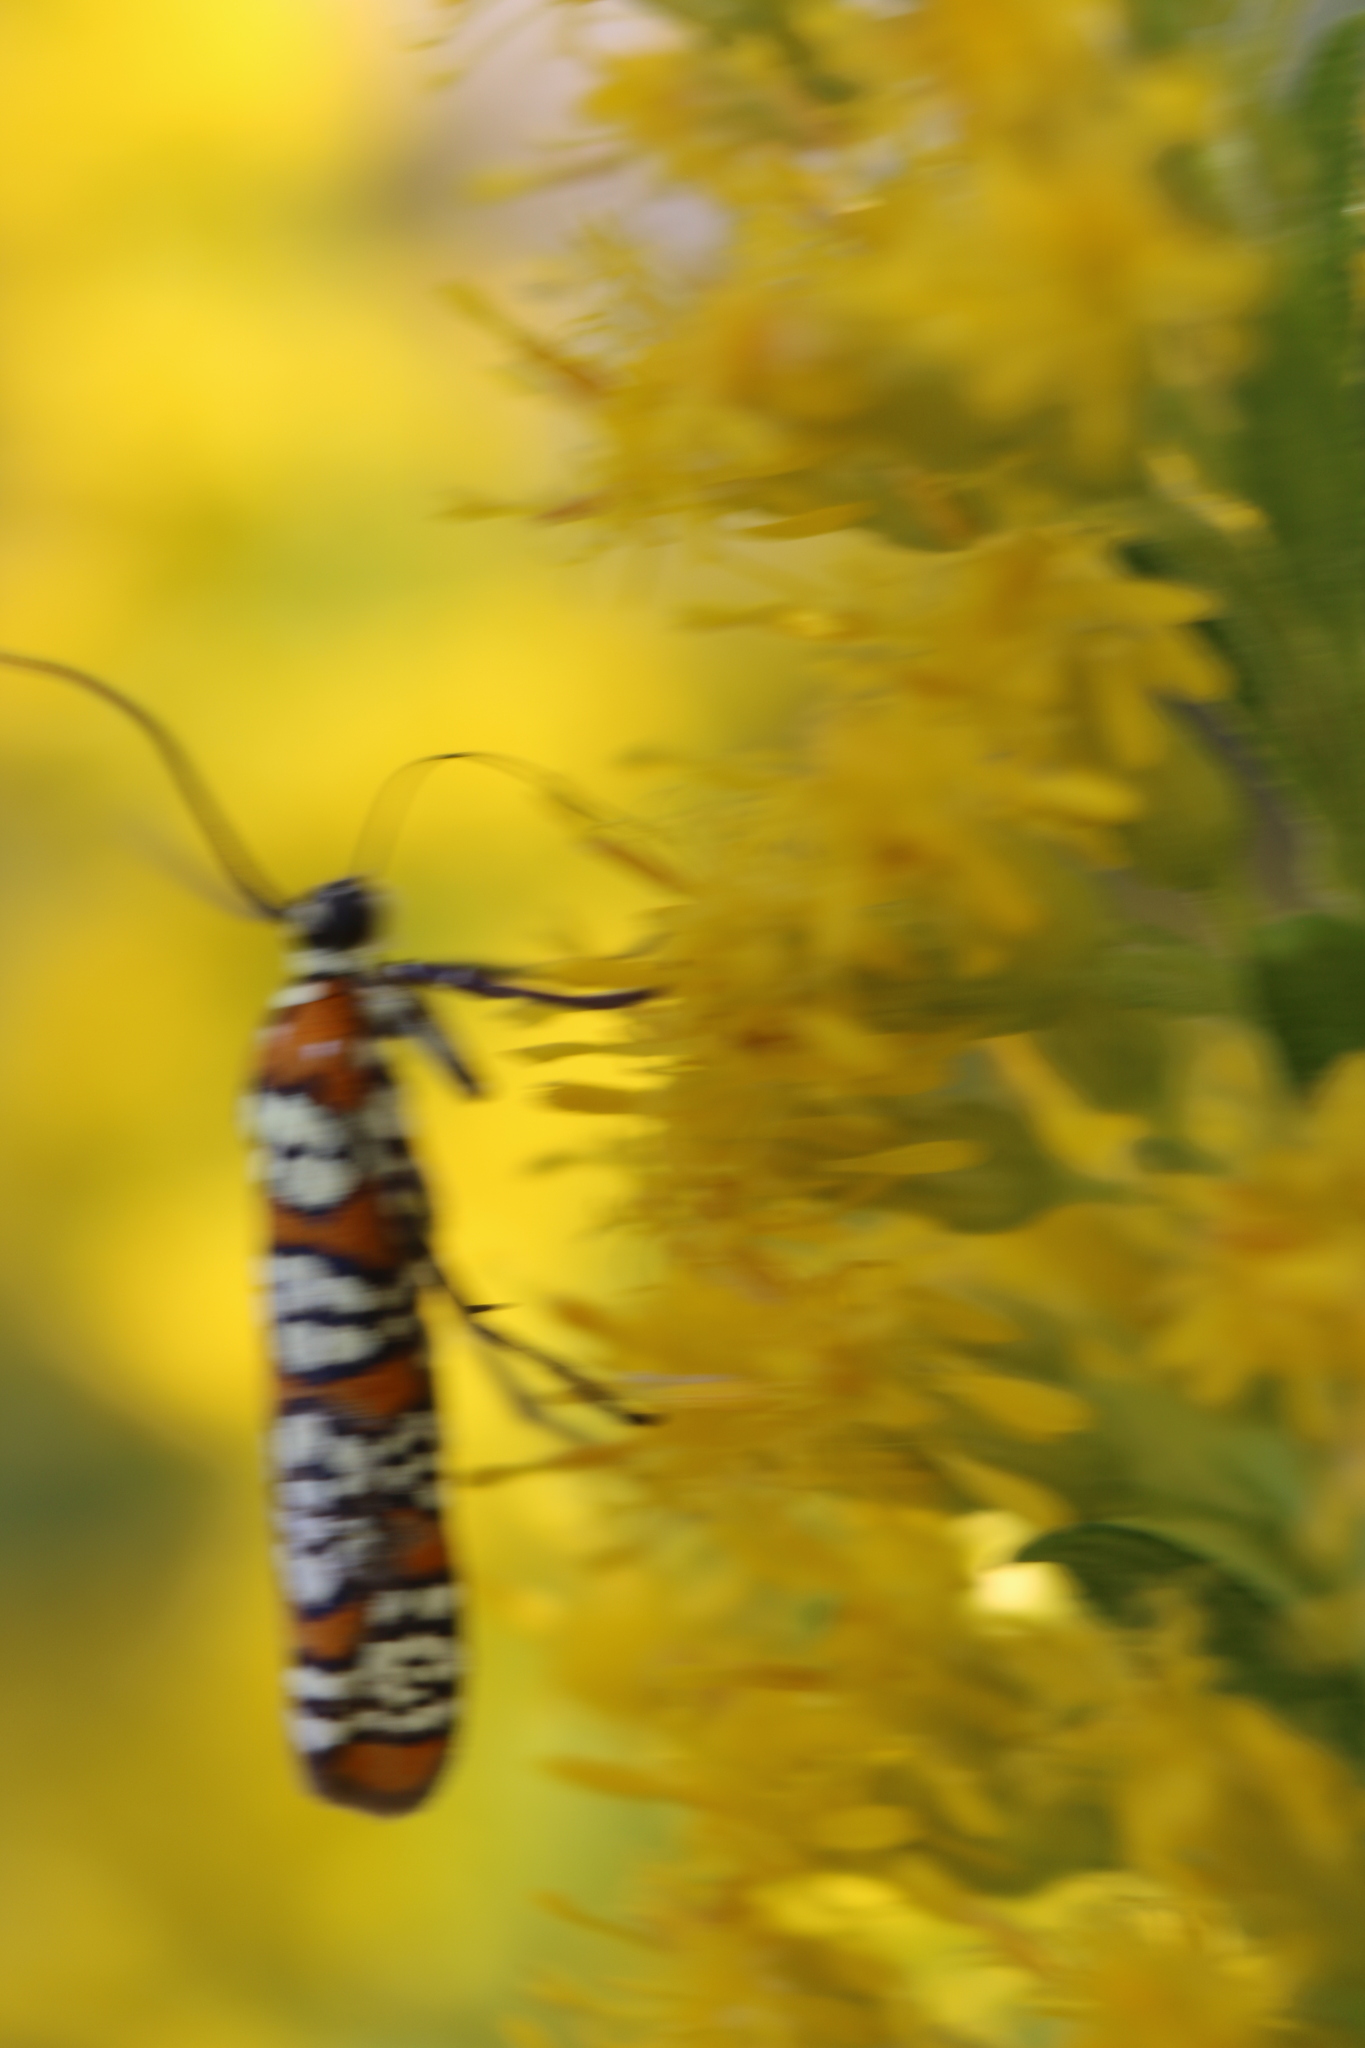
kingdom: Animalia
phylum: Arthropoda
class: Insecta
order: Lepidoptera
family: Attevidae
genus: Atteva
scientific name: Atteva punctella
